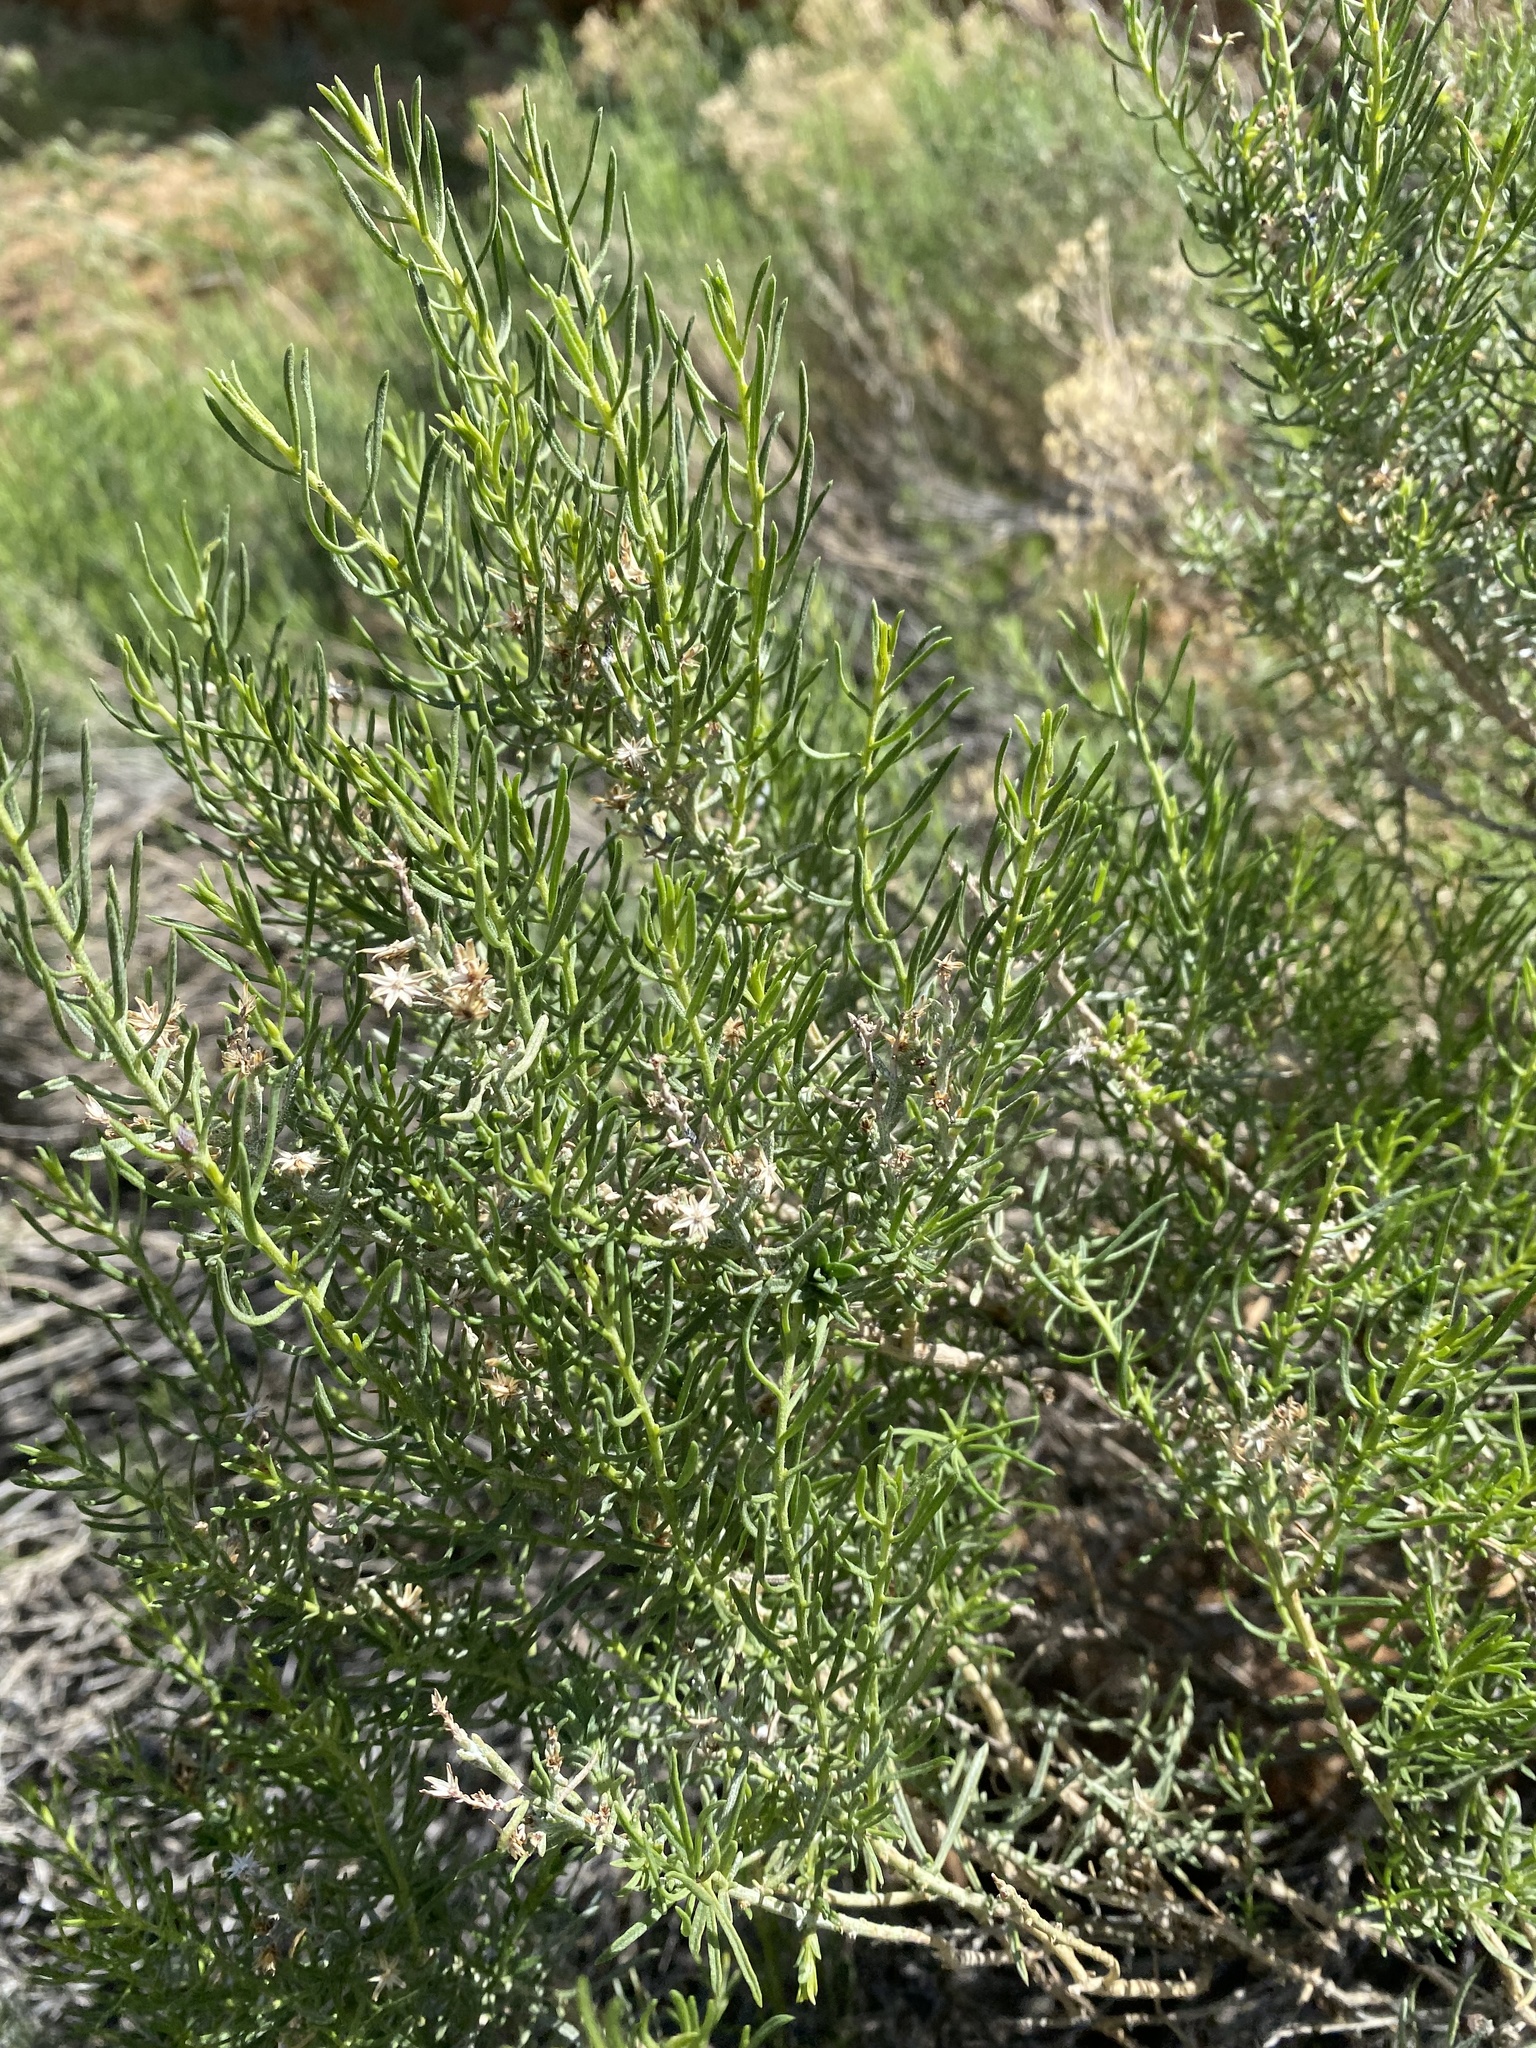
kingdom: Plantae
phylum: Tracheophyta
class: Magnoliopsida
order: Asterales
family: Asteraceae
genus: Ericameria
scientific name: Ericameria brachylepis
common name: Boundary goldenbush
